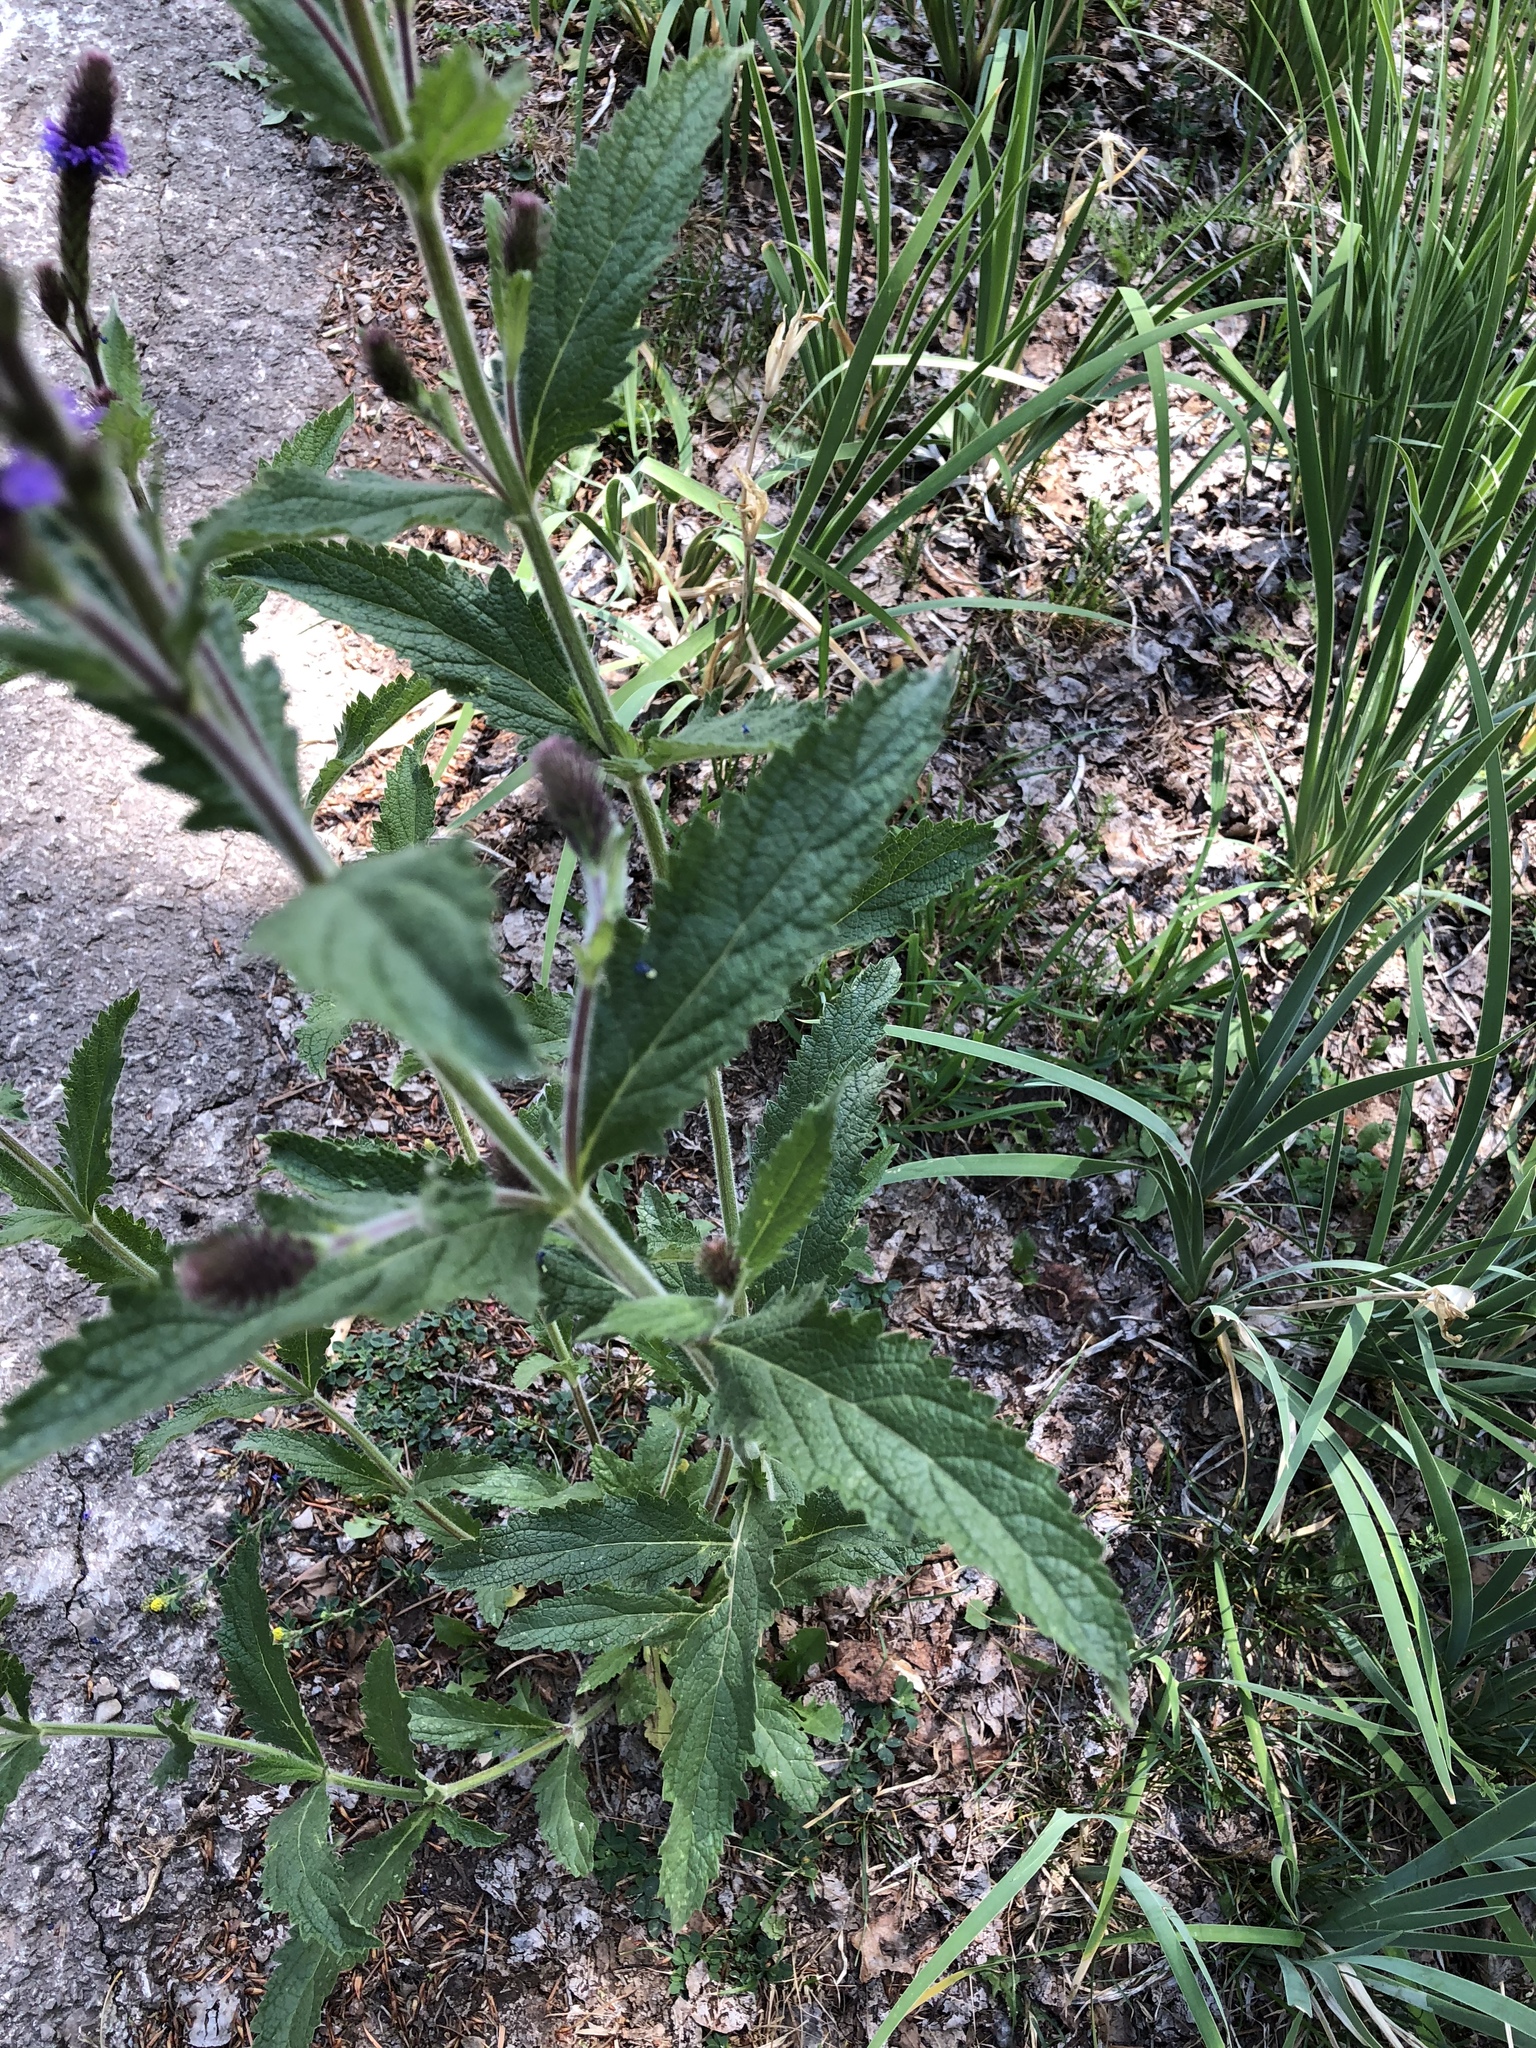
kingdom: Plantae
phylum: Tracheophyta
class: Liliopsida
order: Asparagales
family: Iridaceae
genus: Iris
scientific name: Iris missouriensis
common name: Rocky mountain iris
